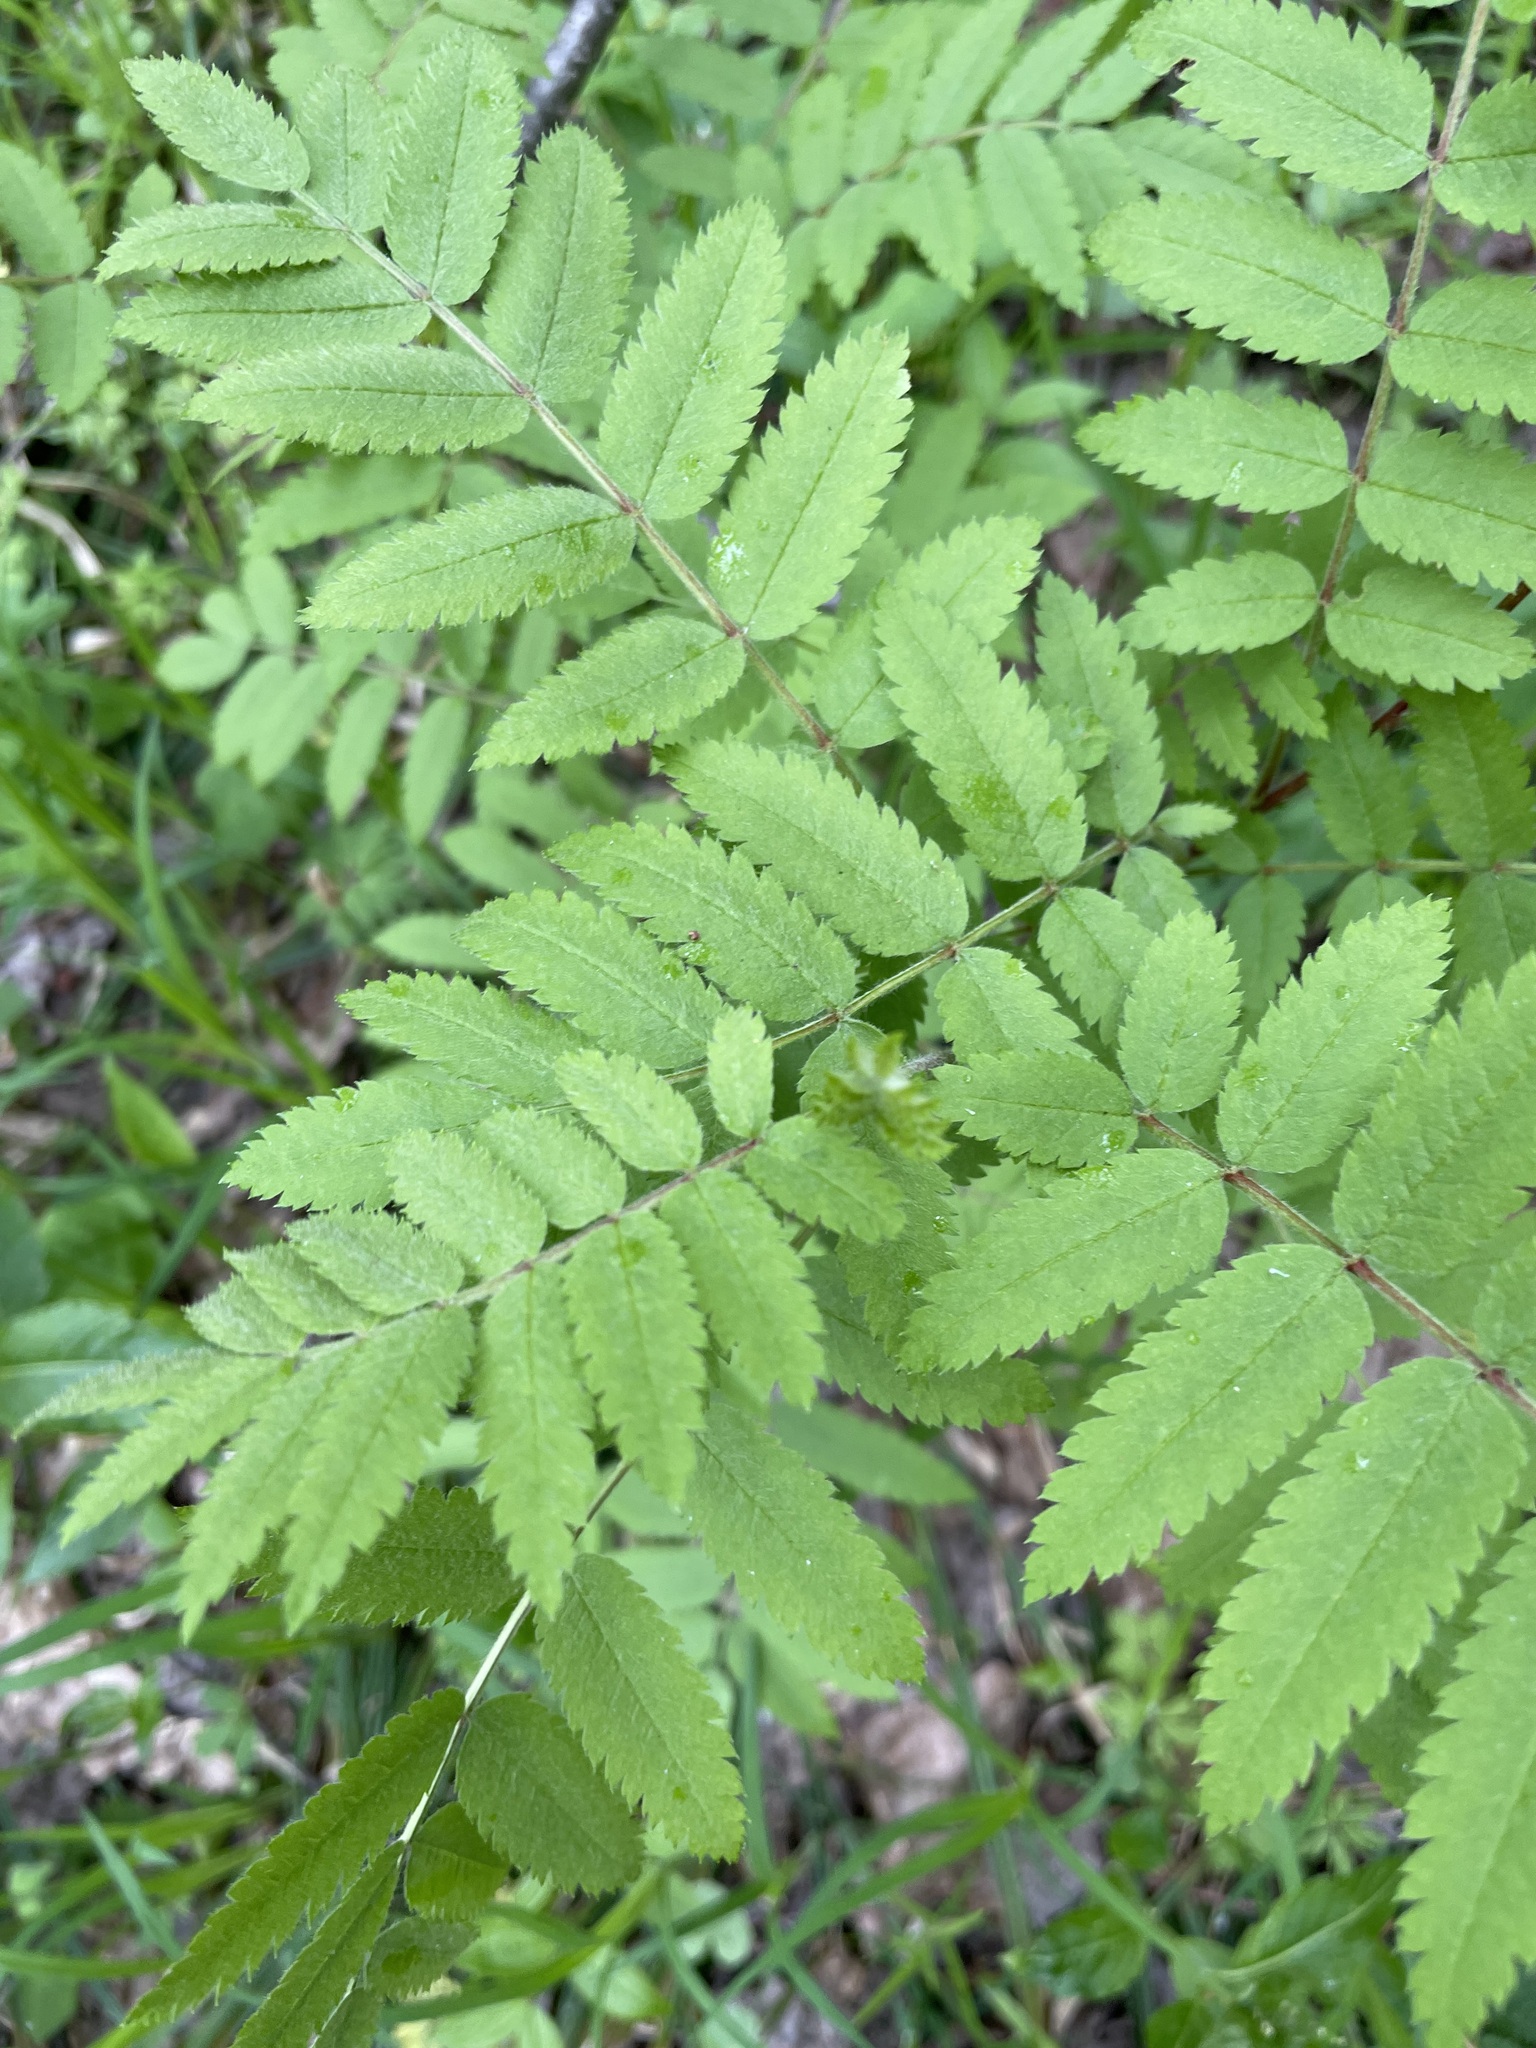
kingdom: Plantae
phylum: Tracheophyta
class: Magnoliopsida
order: Rosales
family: Rosaceae
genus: Sorbus
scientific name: Sorbus aucuparia
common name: Rowan
